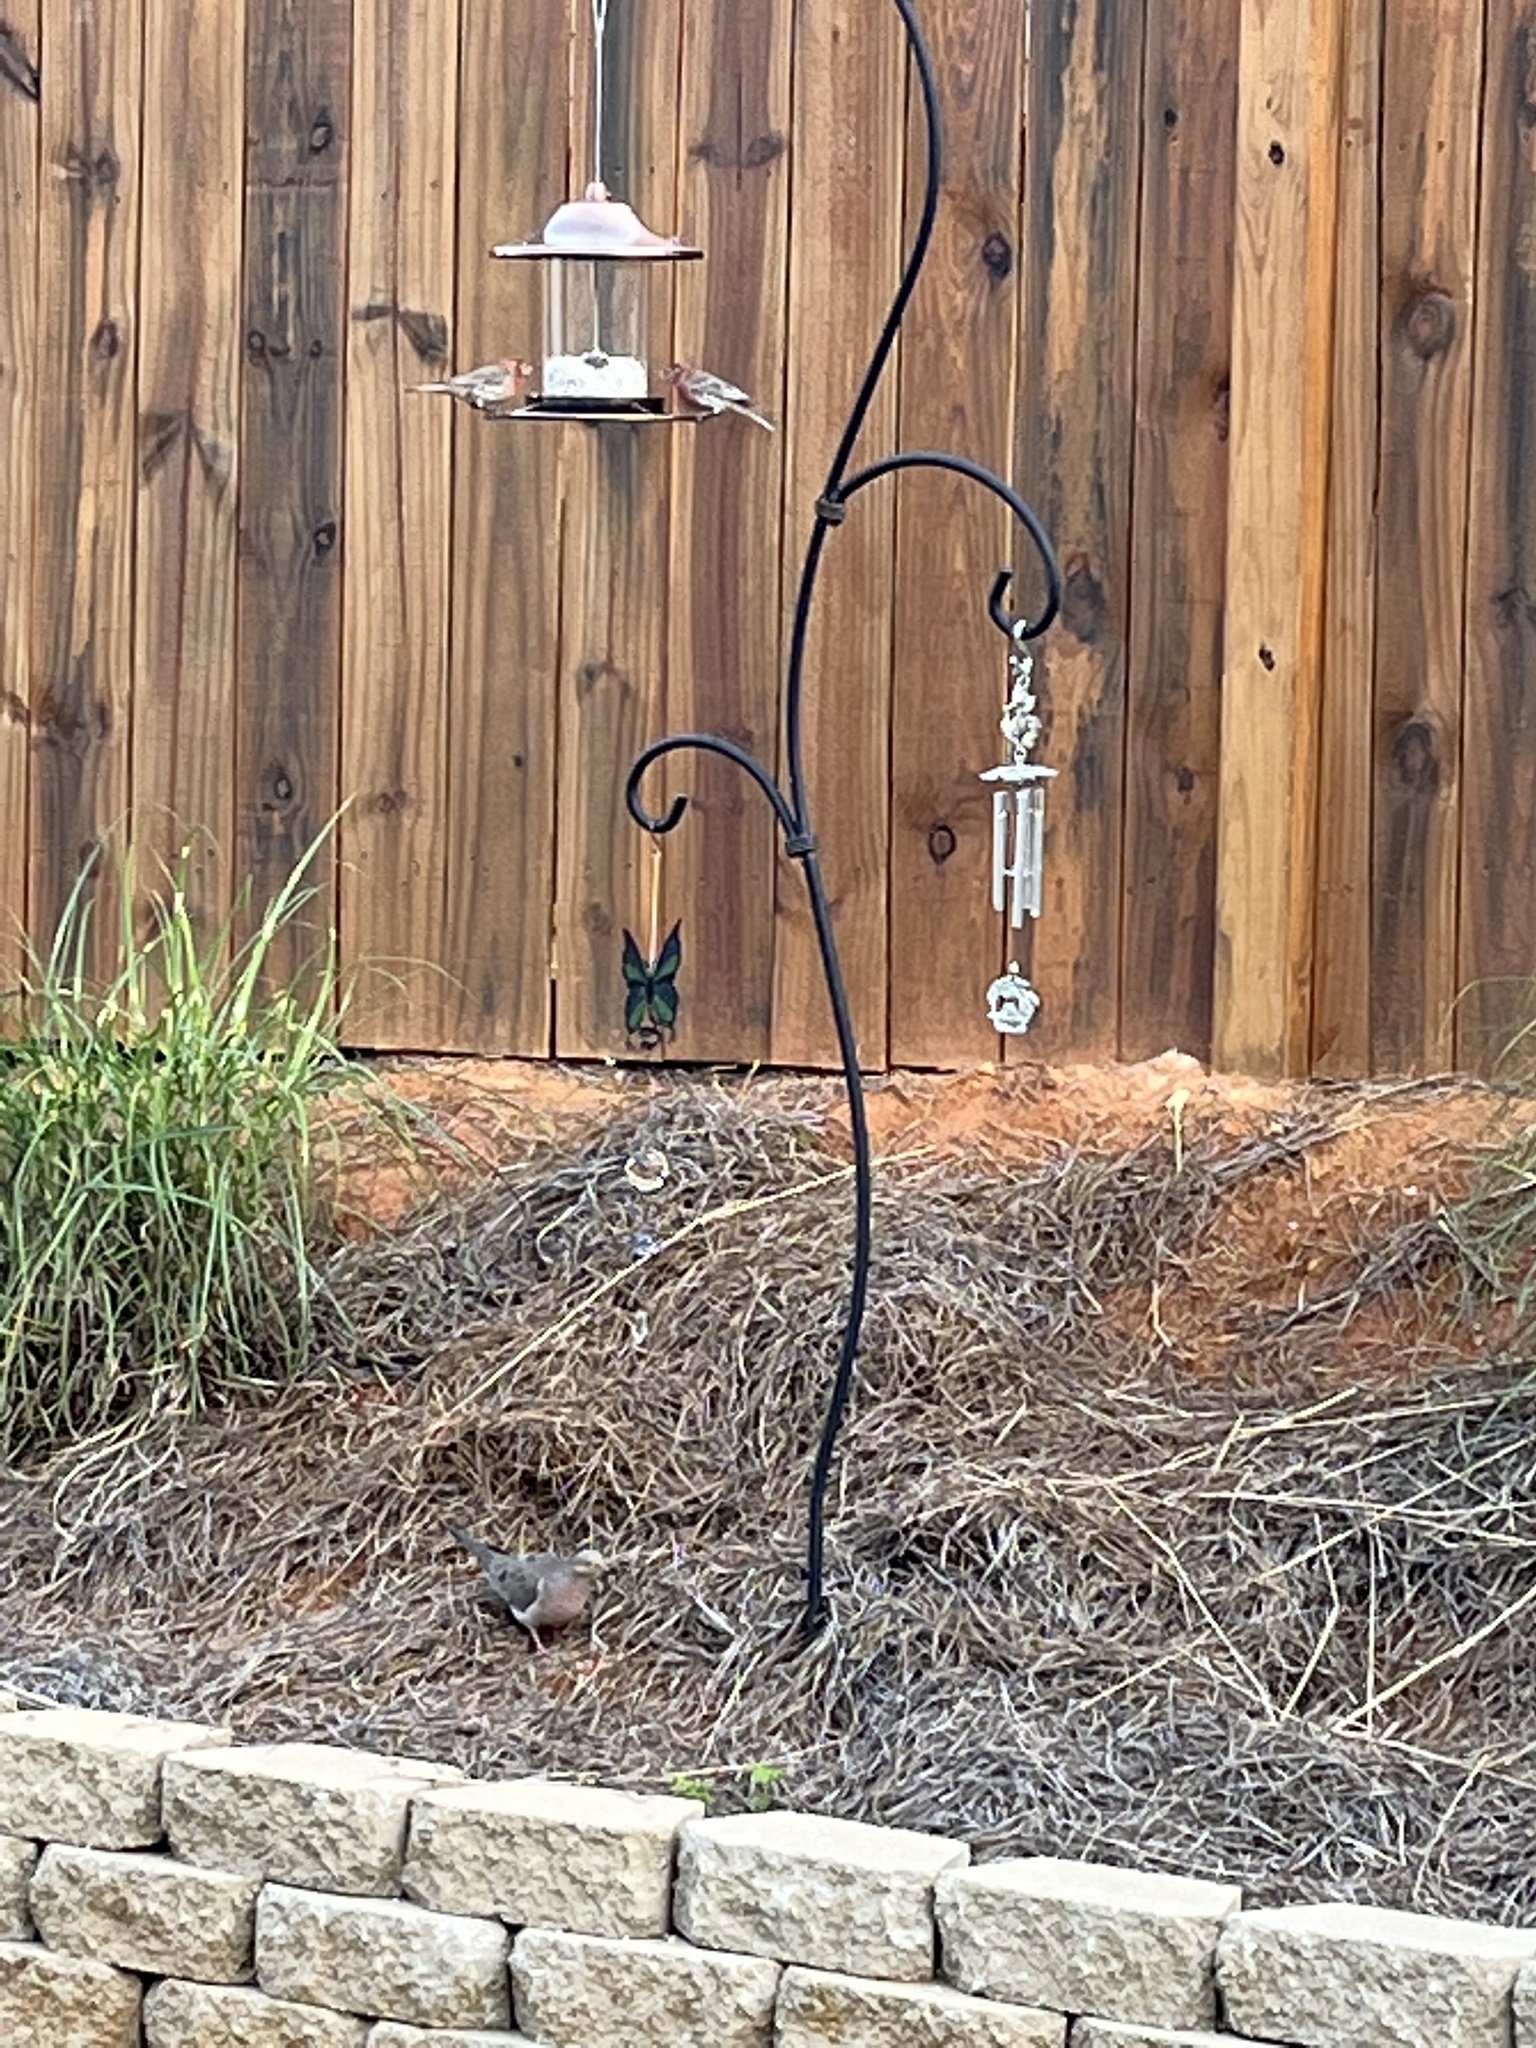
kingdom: Animalia
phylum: Chordata
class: Aves
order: Columbiformes
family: Columbidae
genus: Zenaida
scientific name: Zenaida macroura
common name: Mourning dove
